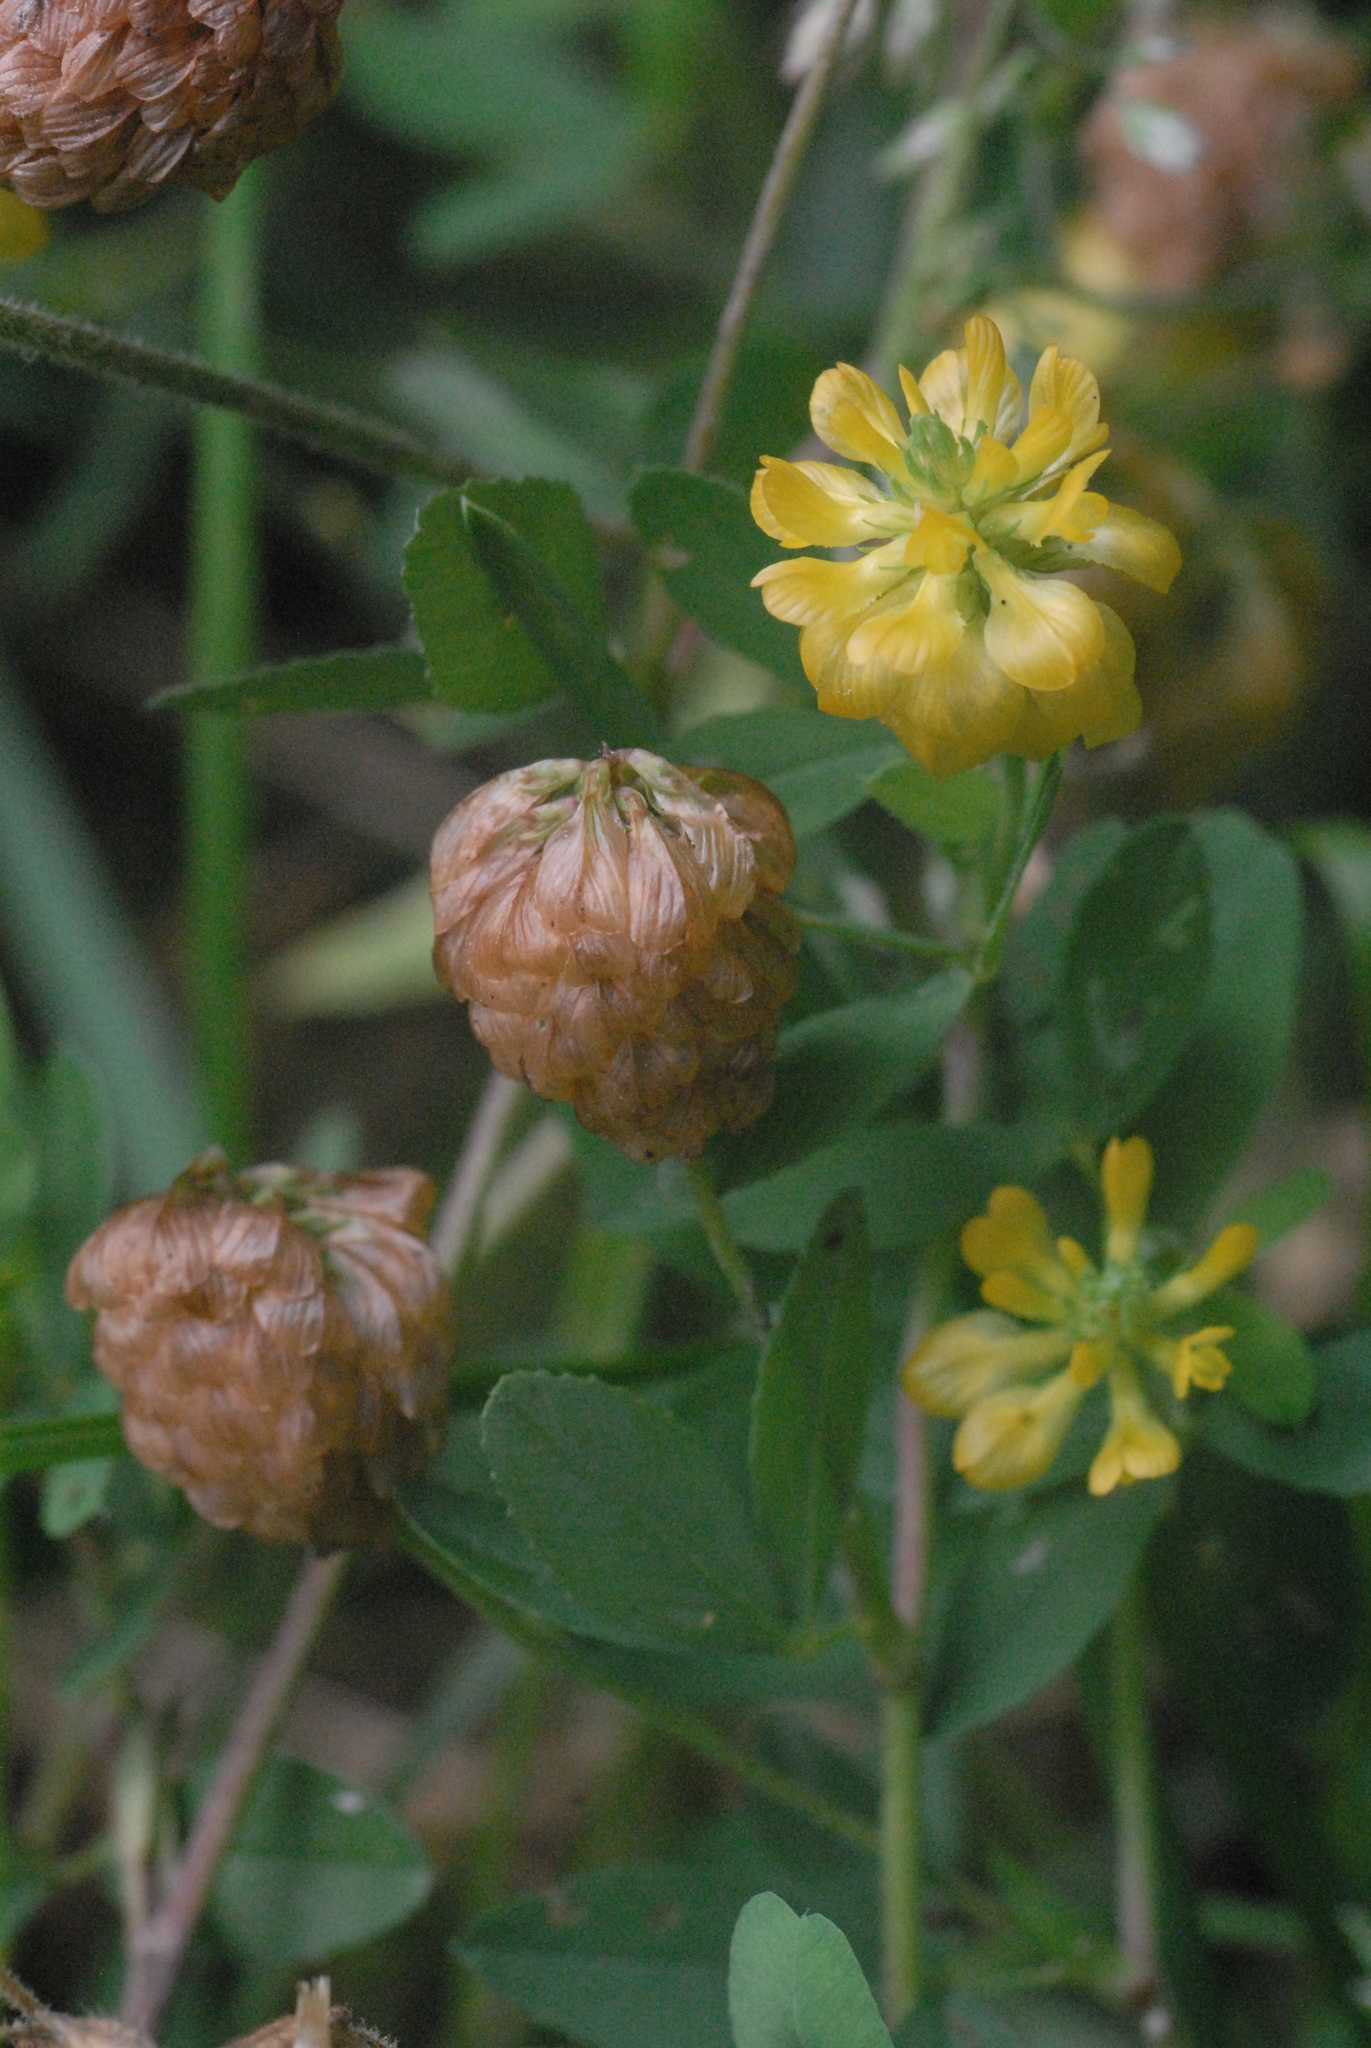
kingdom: Plantae
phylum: Tracheophyta
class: Magnoliopsida
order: Fabales
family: Fabaceae
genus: Trifolium
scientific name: Trifolium aureum
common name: Golden clover
